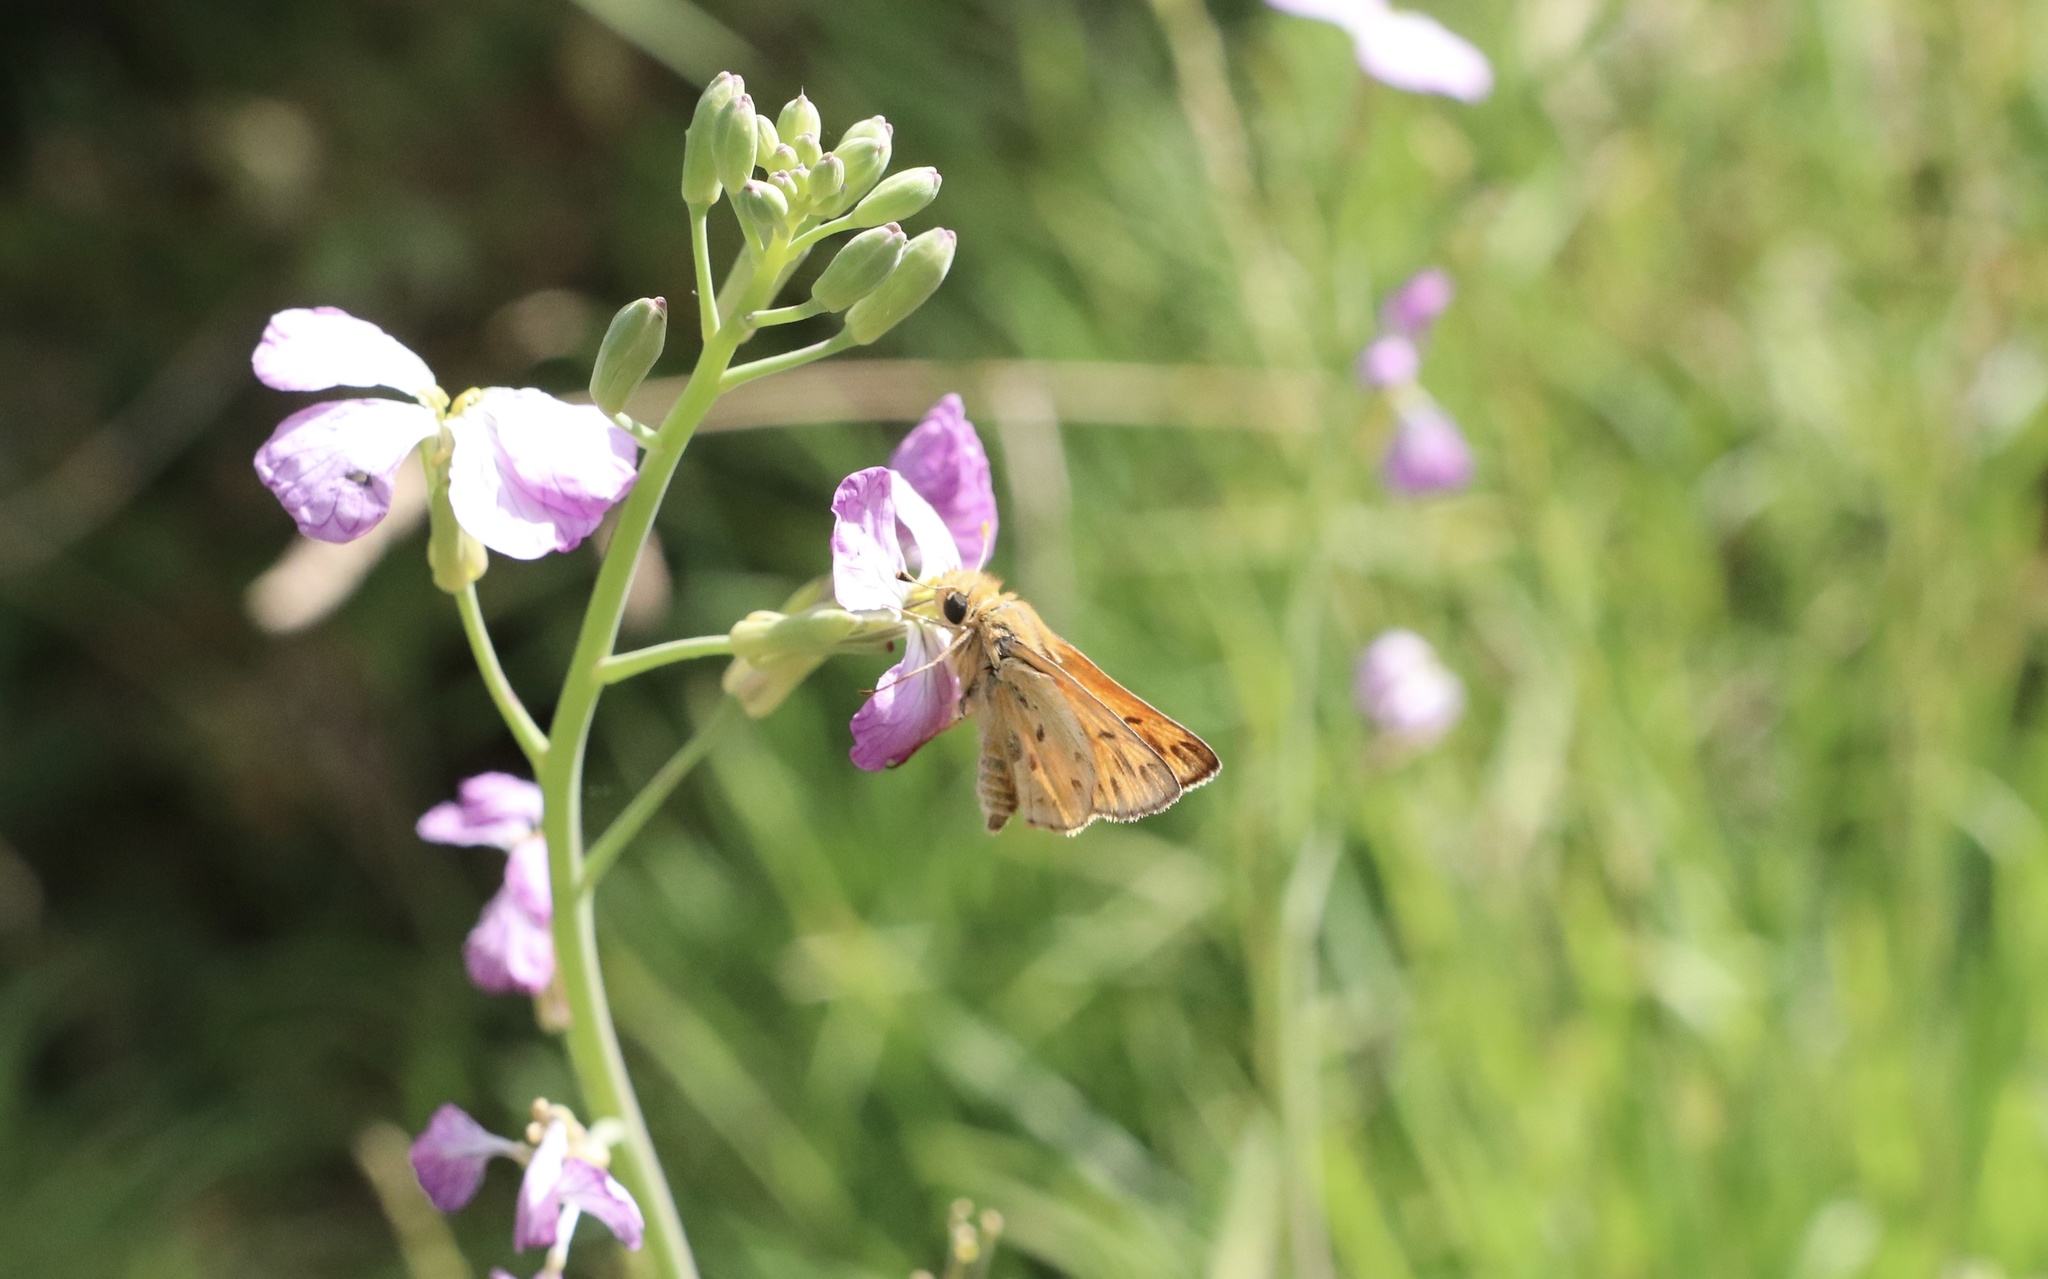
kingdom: Animalia
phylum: Arthropoda
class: Insecta
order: Lepidoptera
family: Hesperiidae
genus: Hylephila
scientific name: Hylephila signata
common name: Signata skipper
